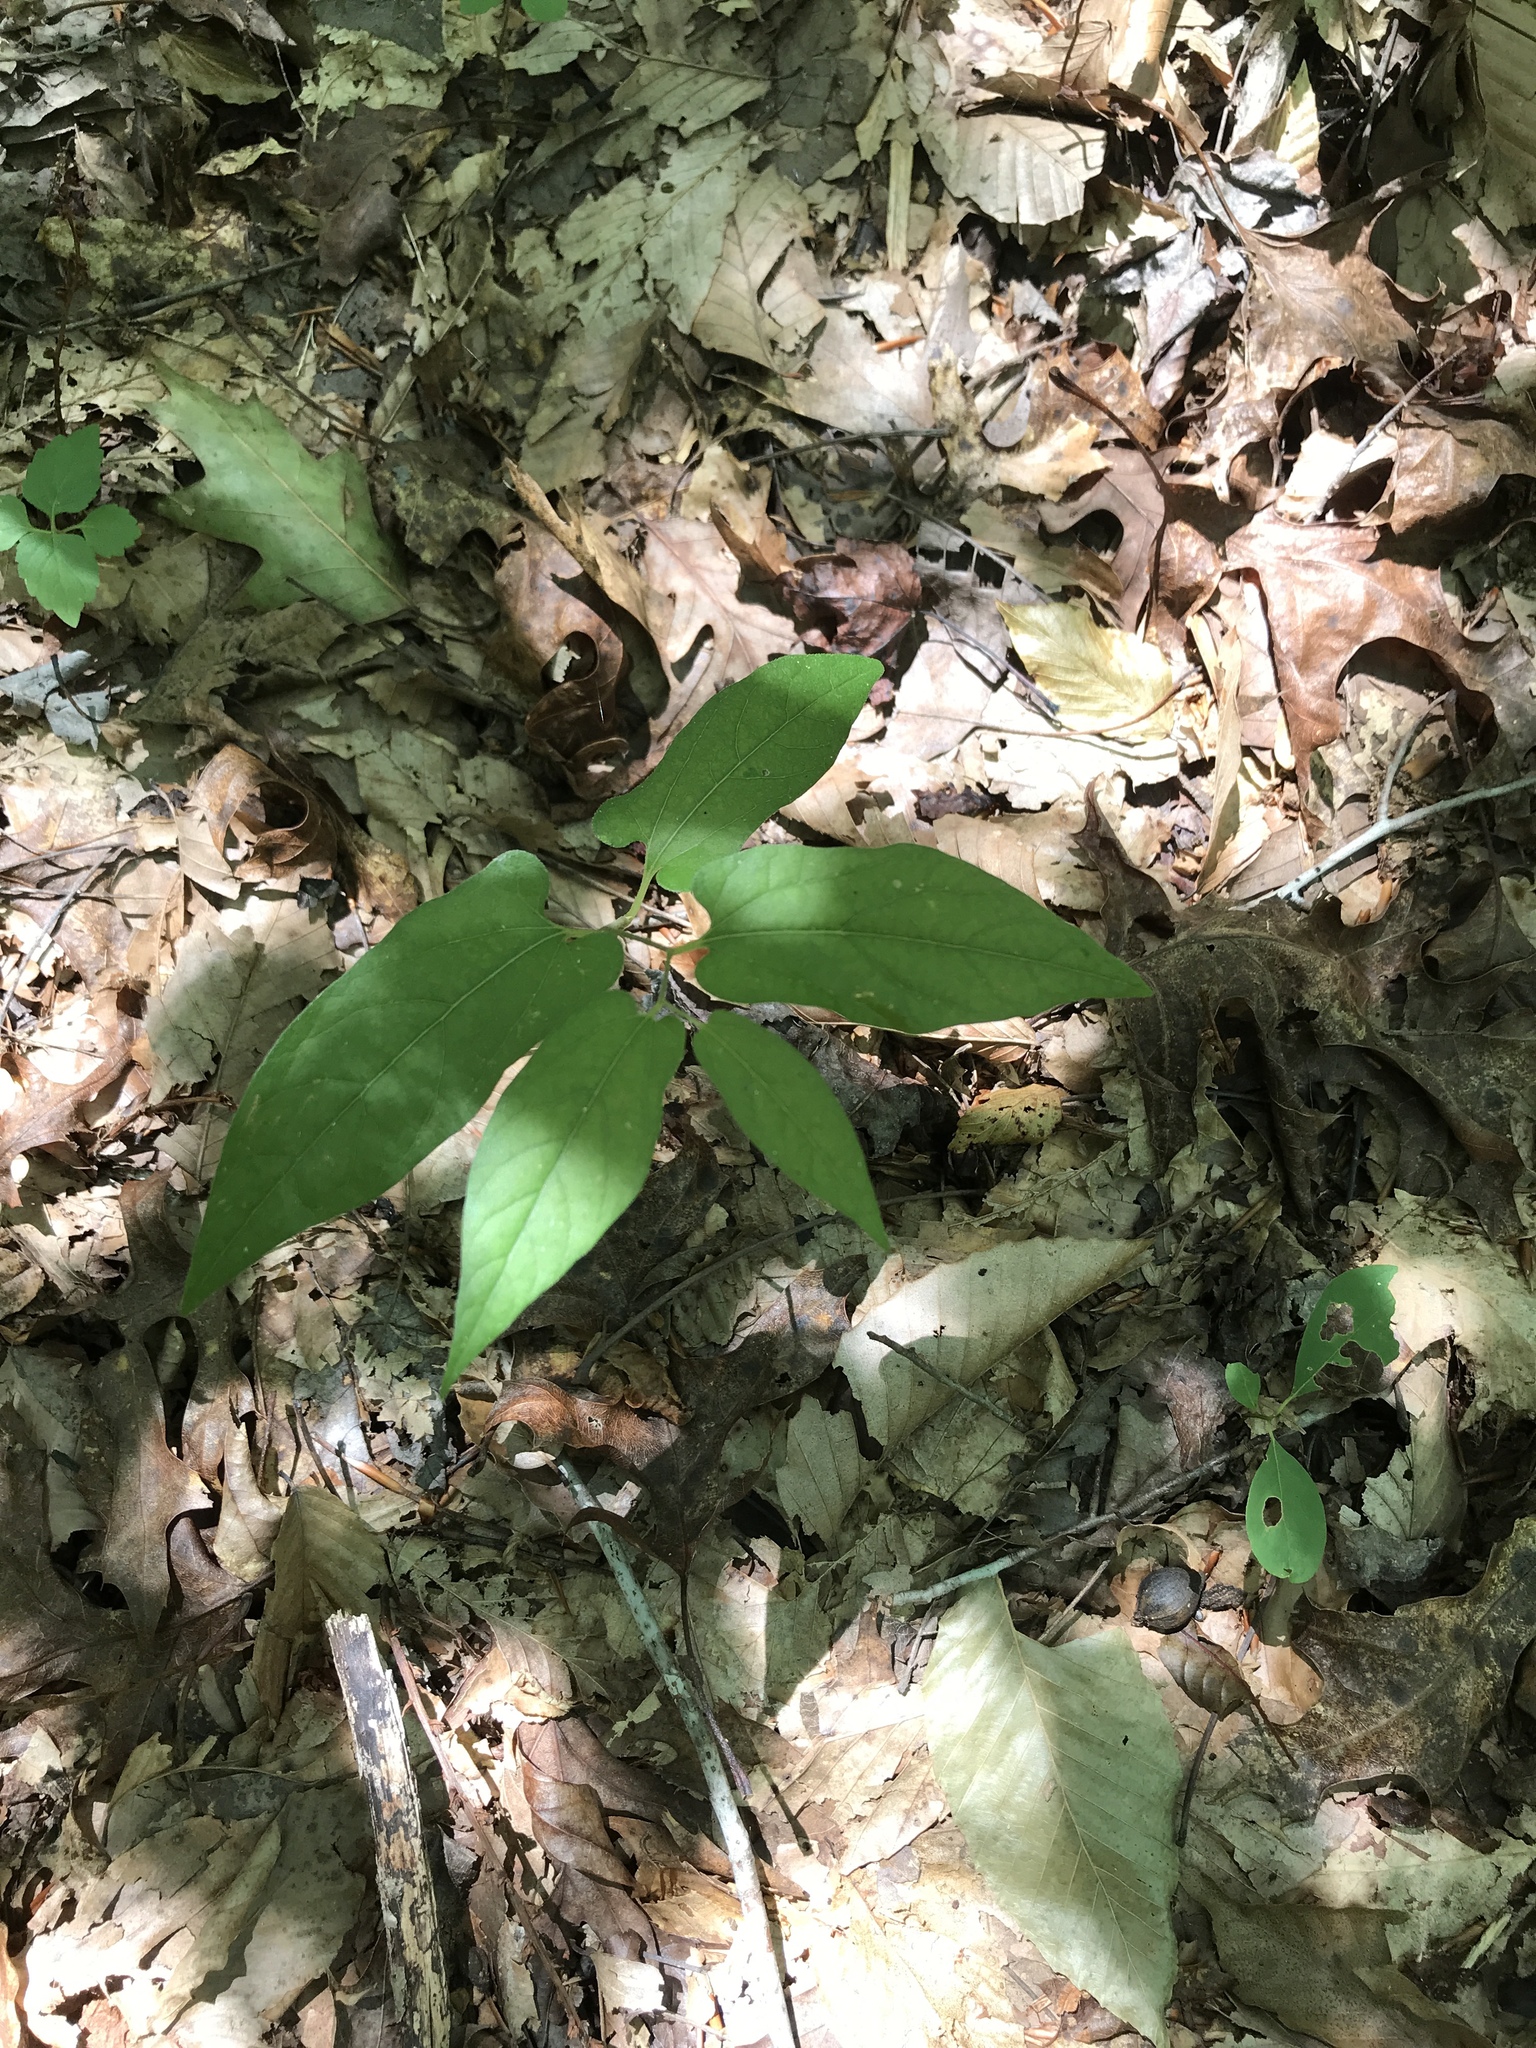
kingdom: Plantae
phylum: Tracheophyta
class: Magnoliopsida
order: Piperales
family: Aristolochiaceae
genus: Endodeca
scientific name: Endodeca serpentaria
